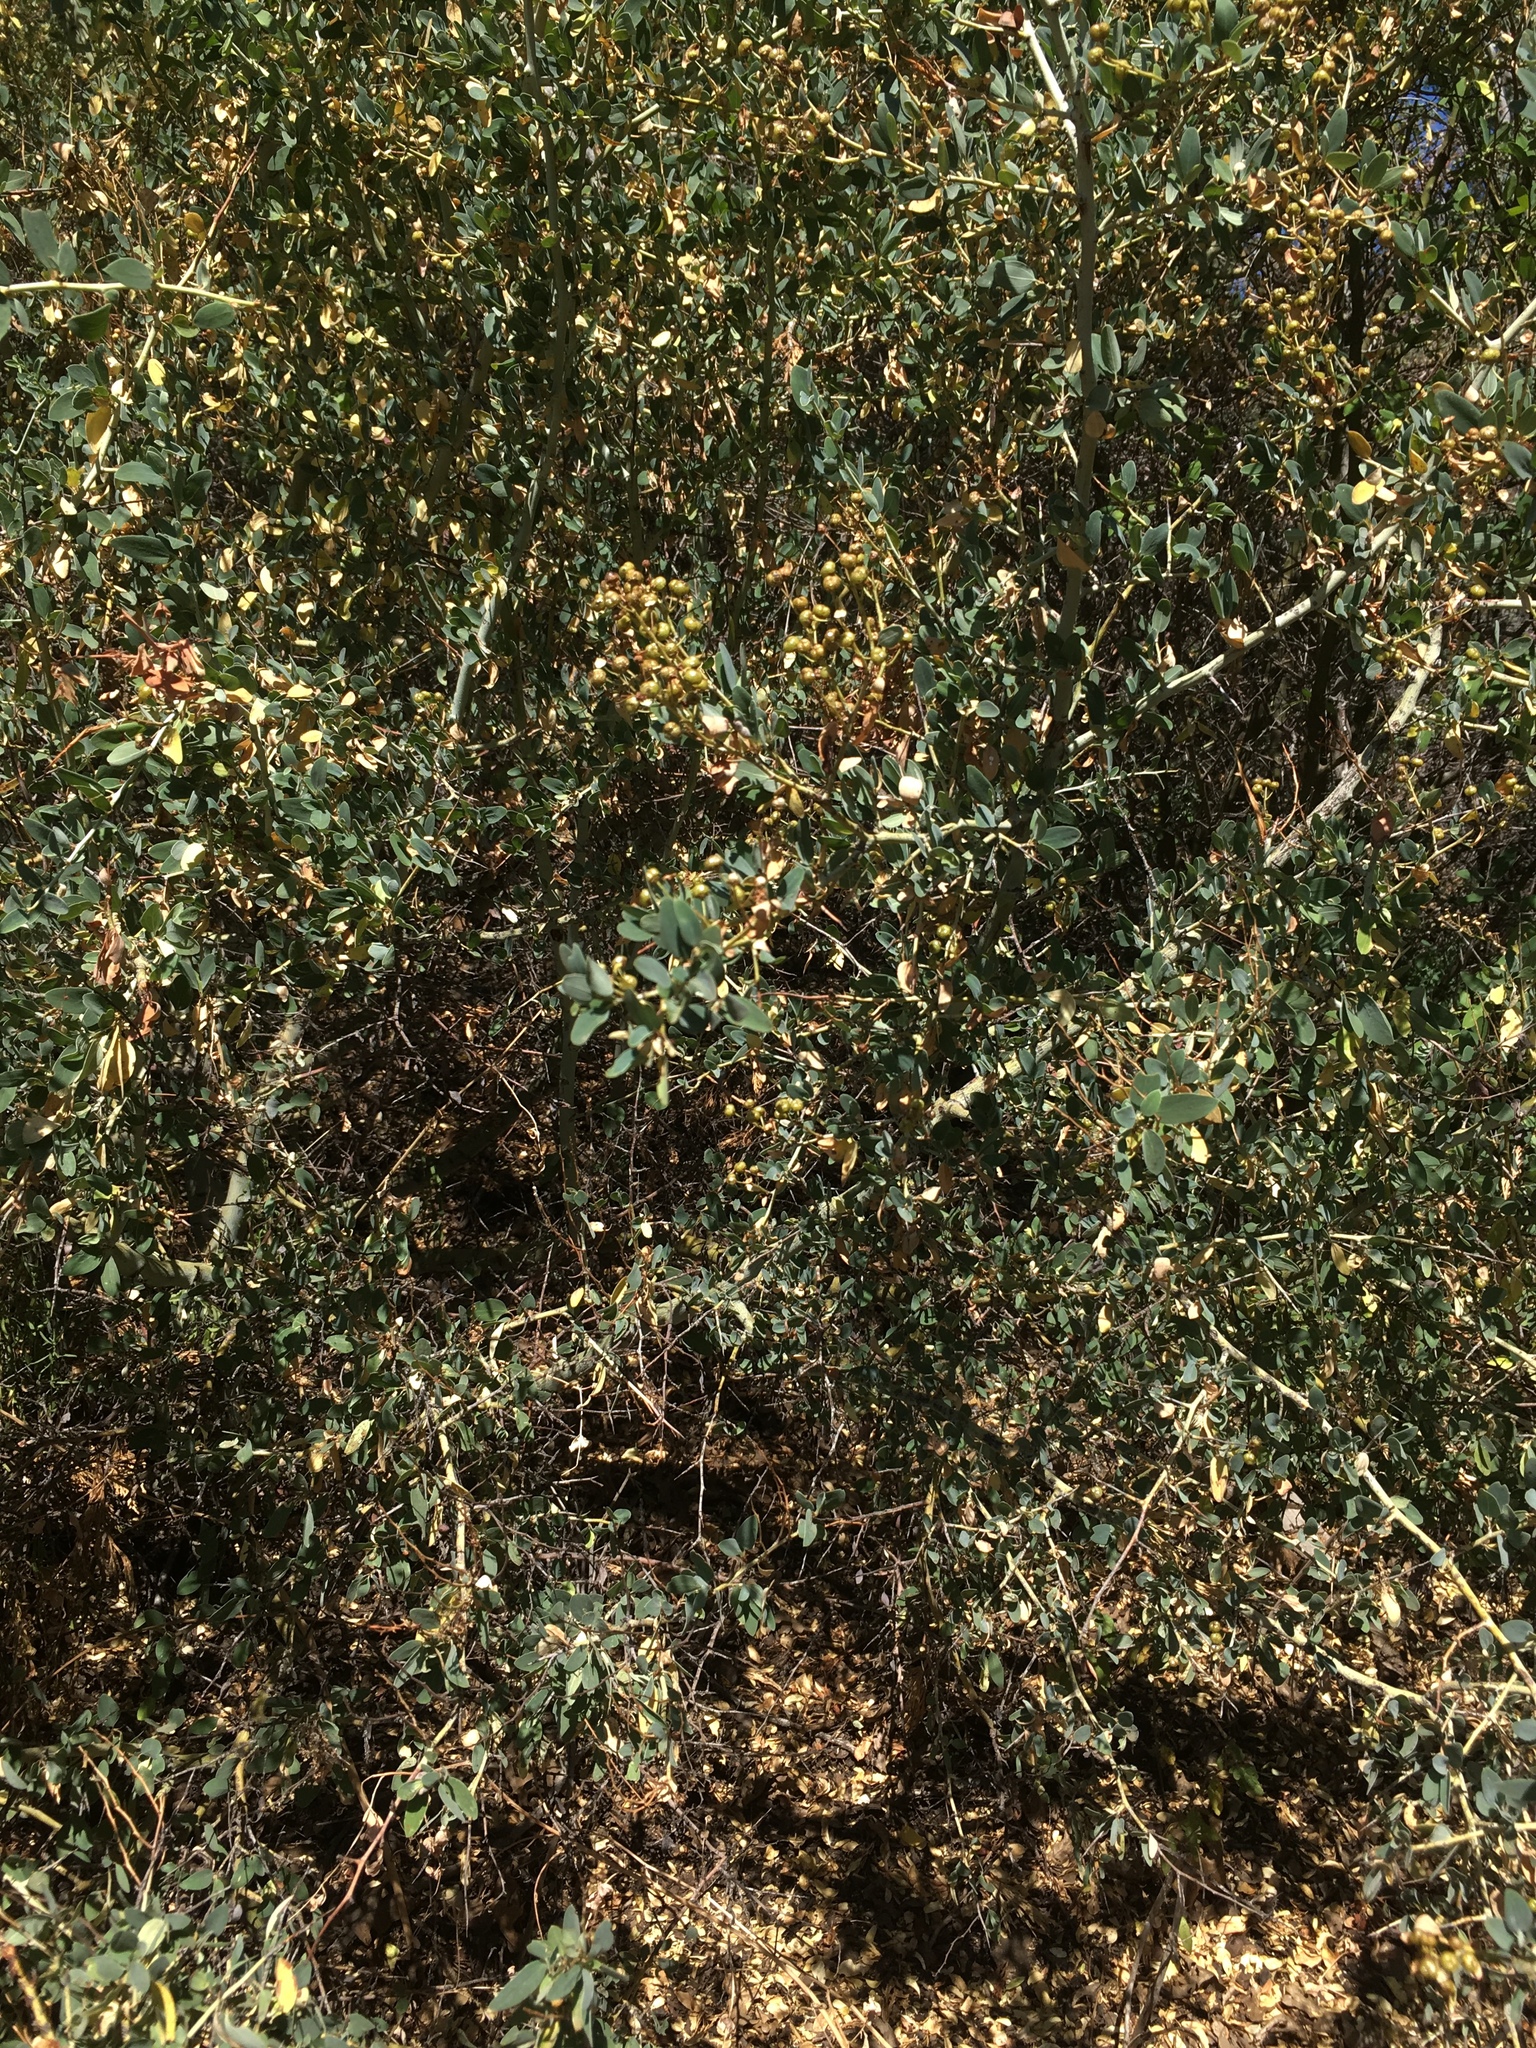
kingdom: Plantae
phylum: Tracheophyta
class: Magnoliopsida
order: Rosales
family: Rhamnaceae
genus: Ceanothus
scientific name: Ceanothus leucodermis
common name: Chaparral whitethorn
